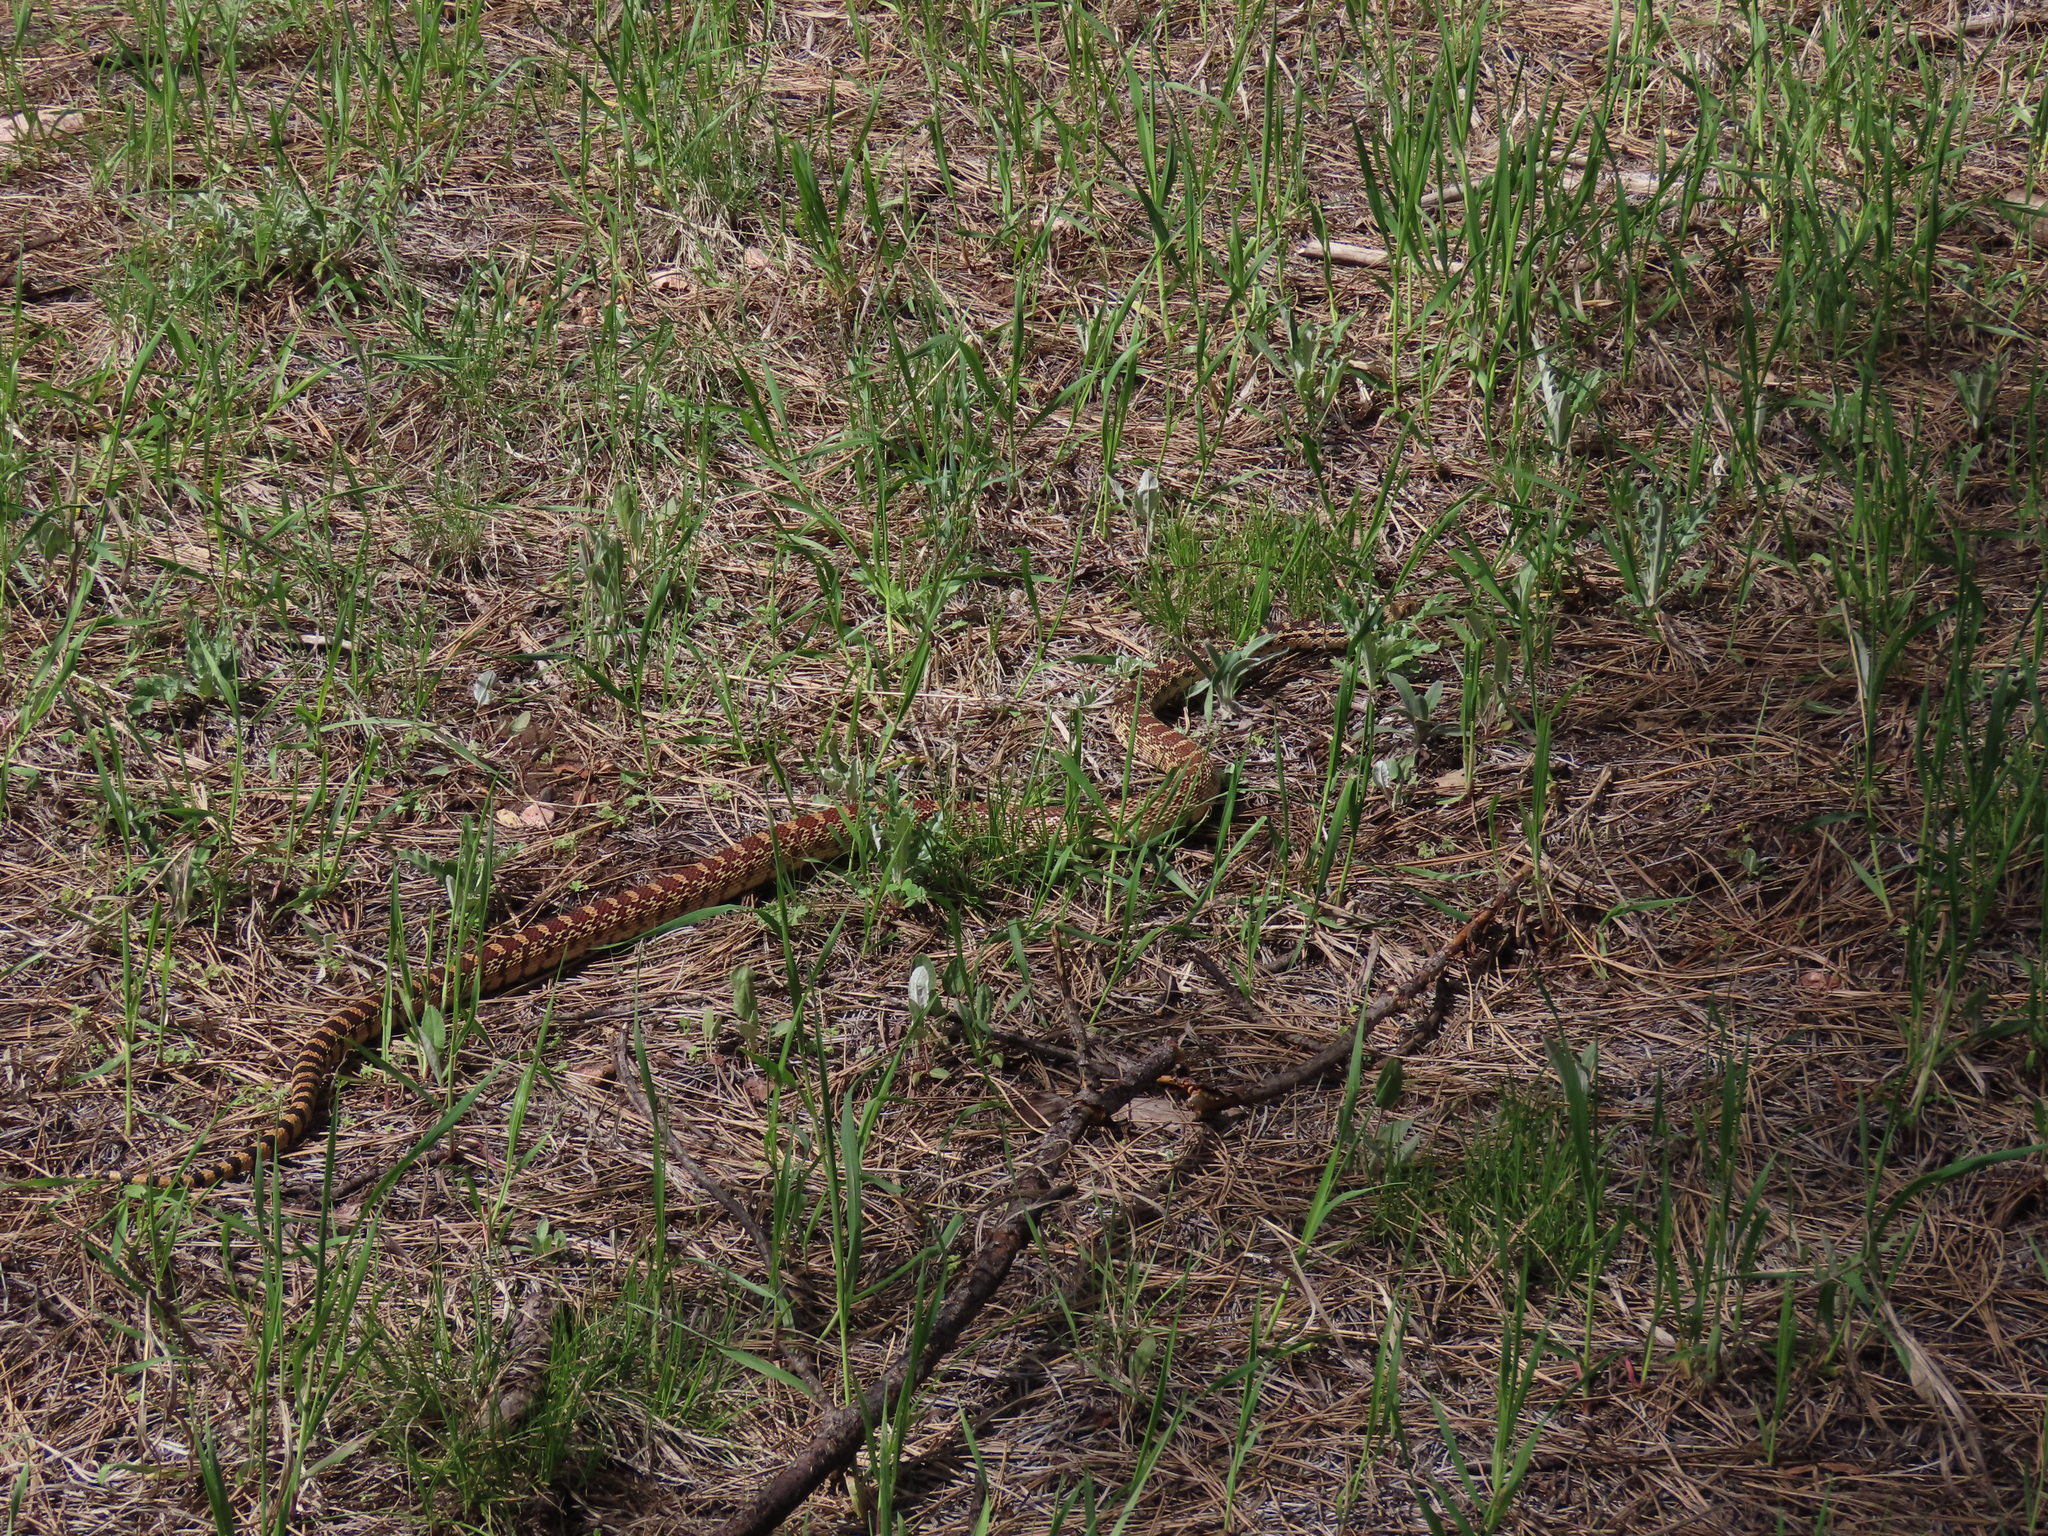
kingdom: Animalia
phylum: Chordata
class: Squamata
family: Colubridae
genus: Pituophis
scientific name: Pituophis catenifer
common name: Gopher snake
